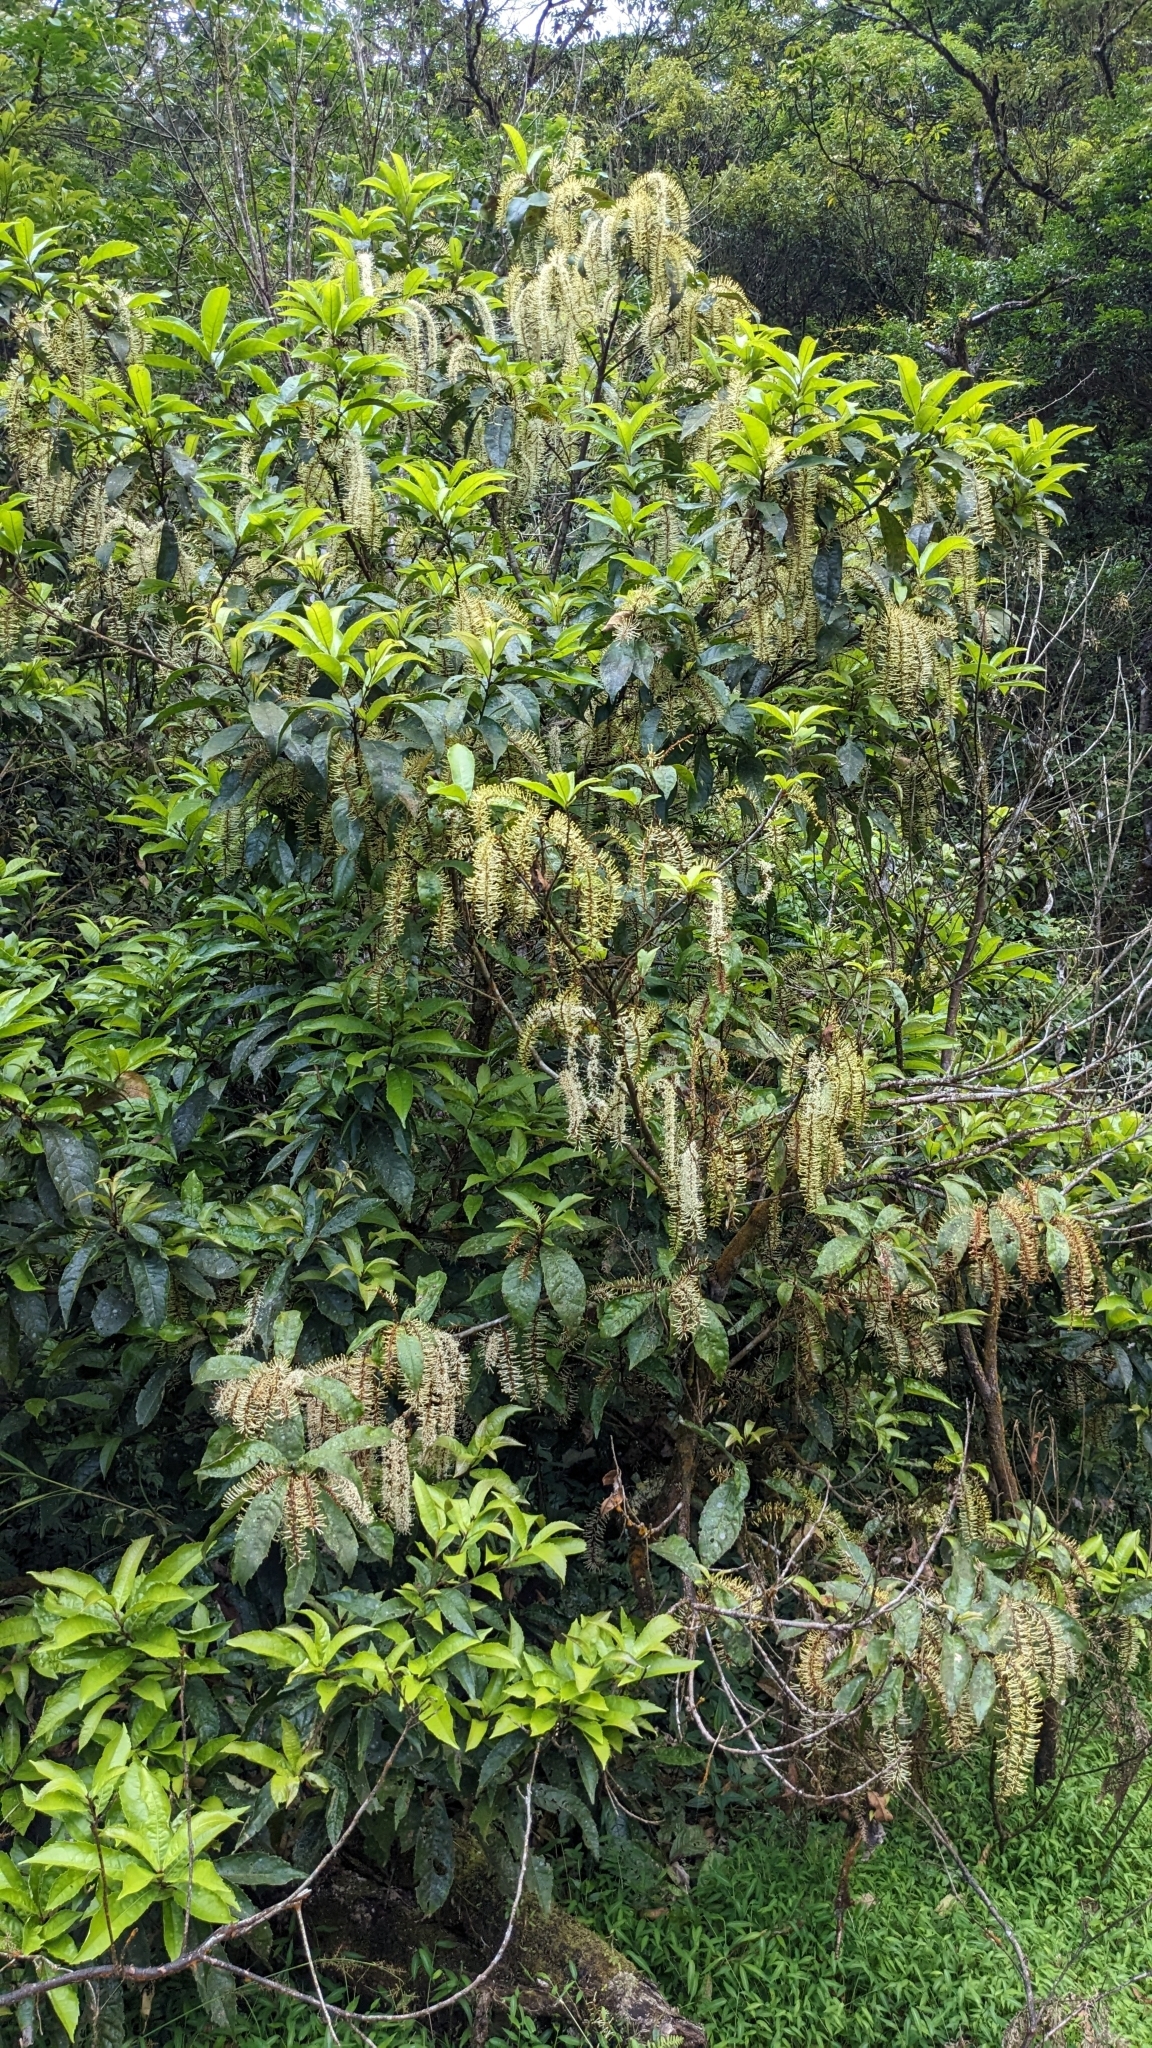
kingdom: Plantae
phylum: Tracheophyta
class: Magnoliopsida
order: Proteales
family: Proteaceae
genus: Helicia
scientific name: Helicia formosana
